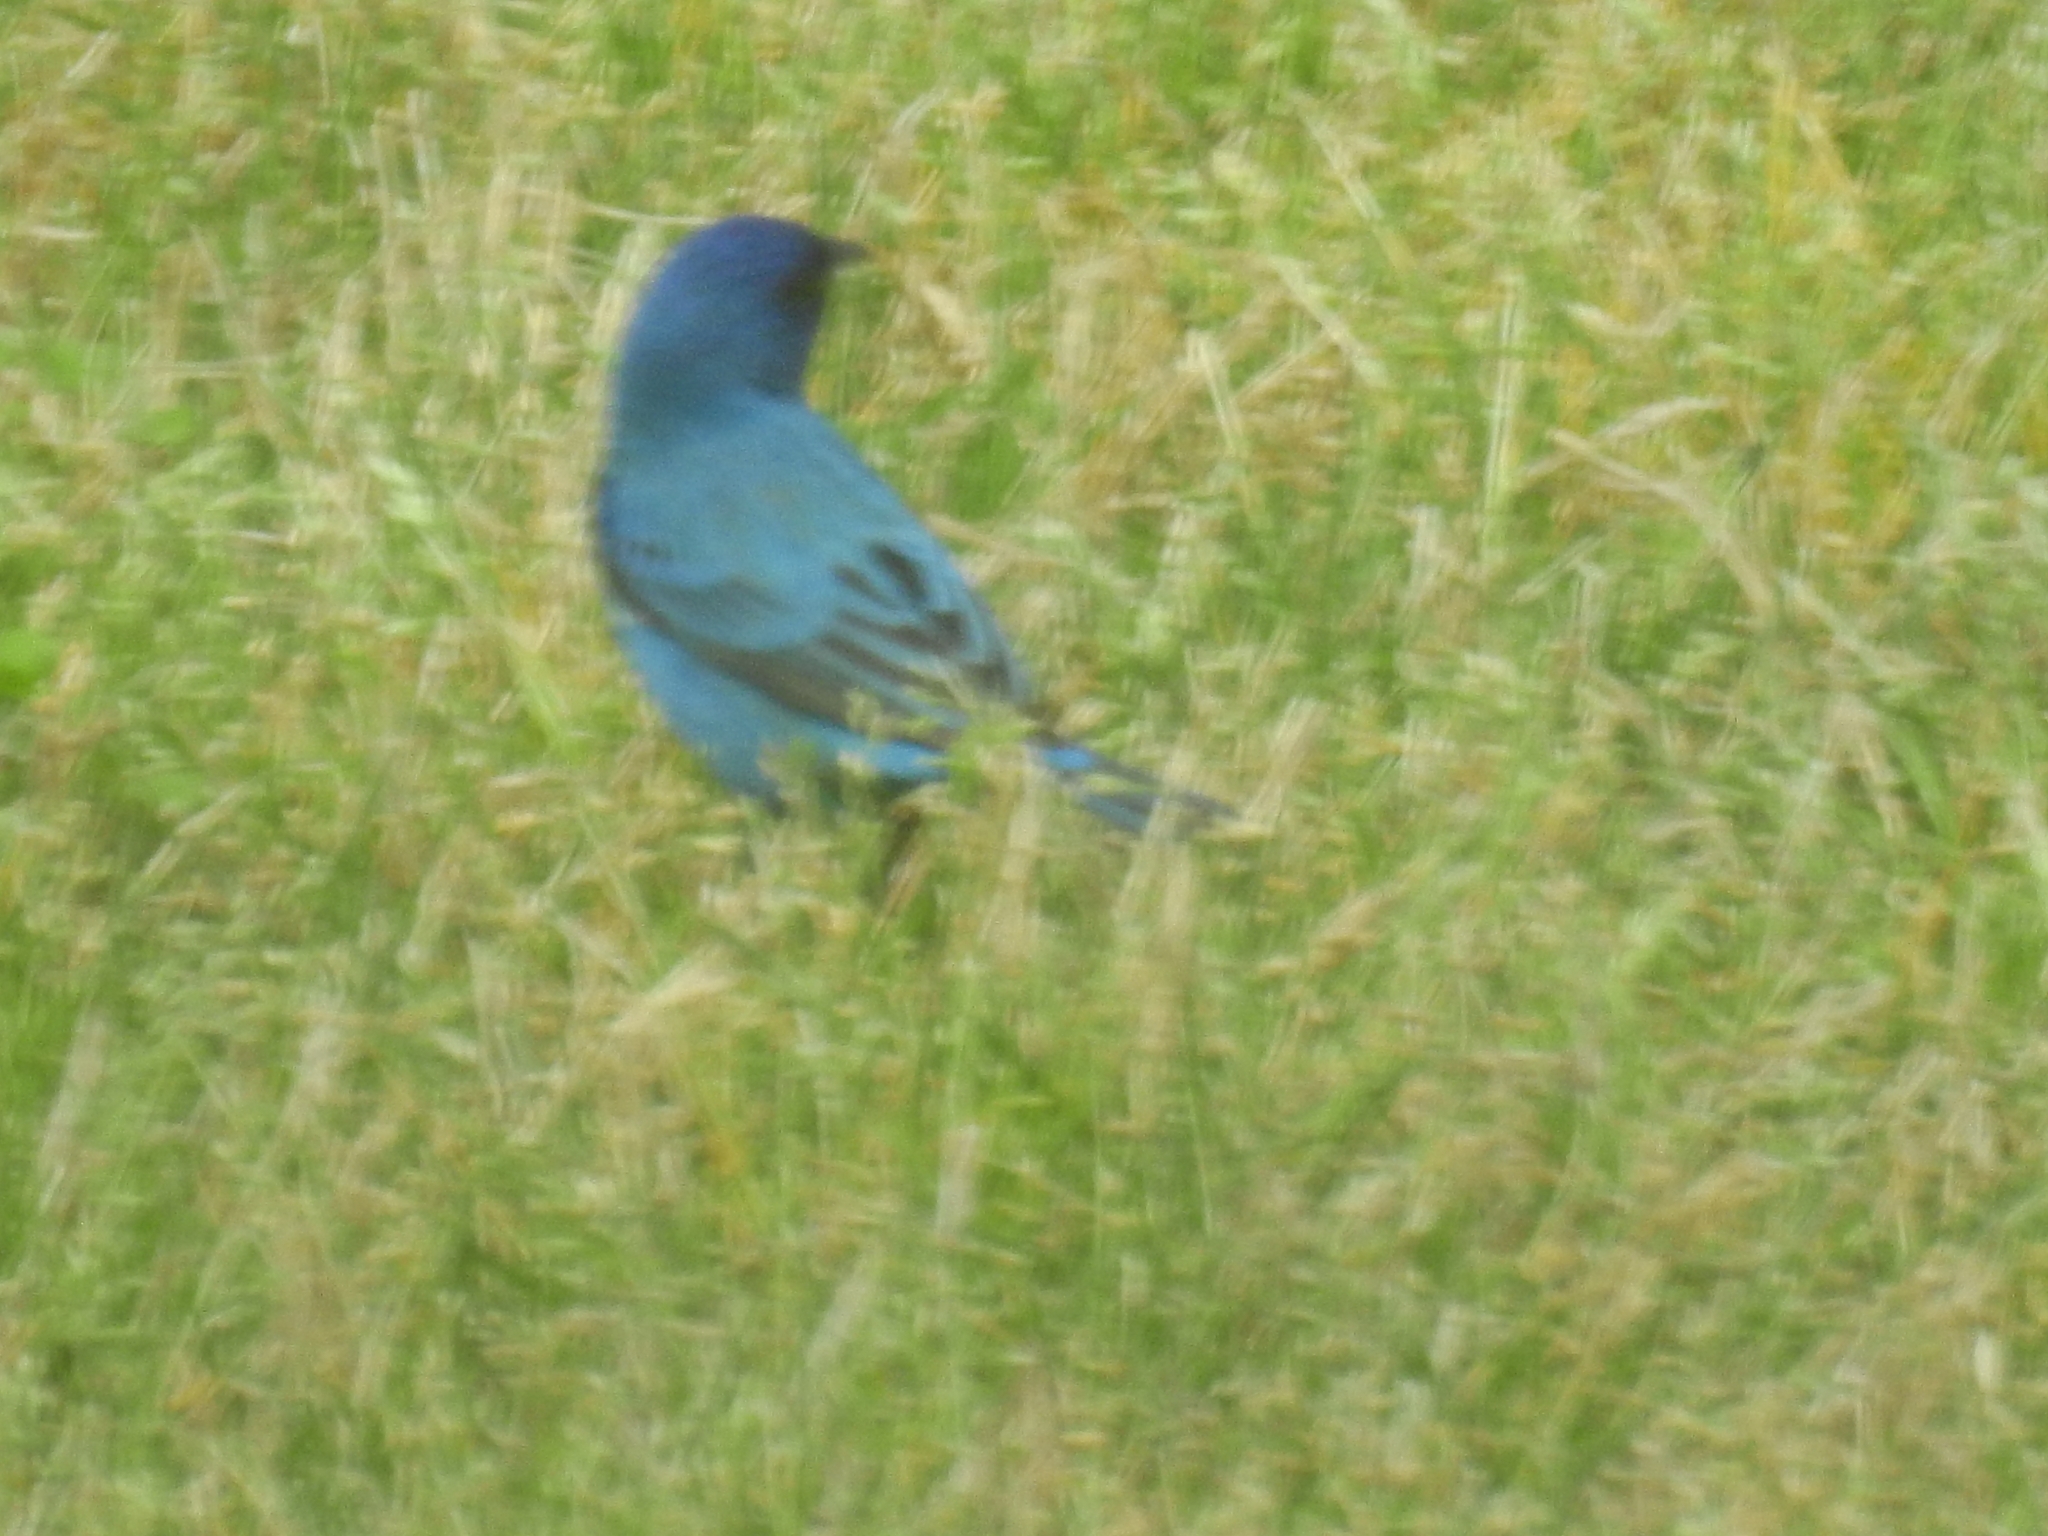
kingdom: Animalia
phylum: Chordata
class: Aves
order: Passeriformes
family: Cardinalidae
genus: Passerina
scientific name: Passerina cyanea
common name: Indigo bunting
